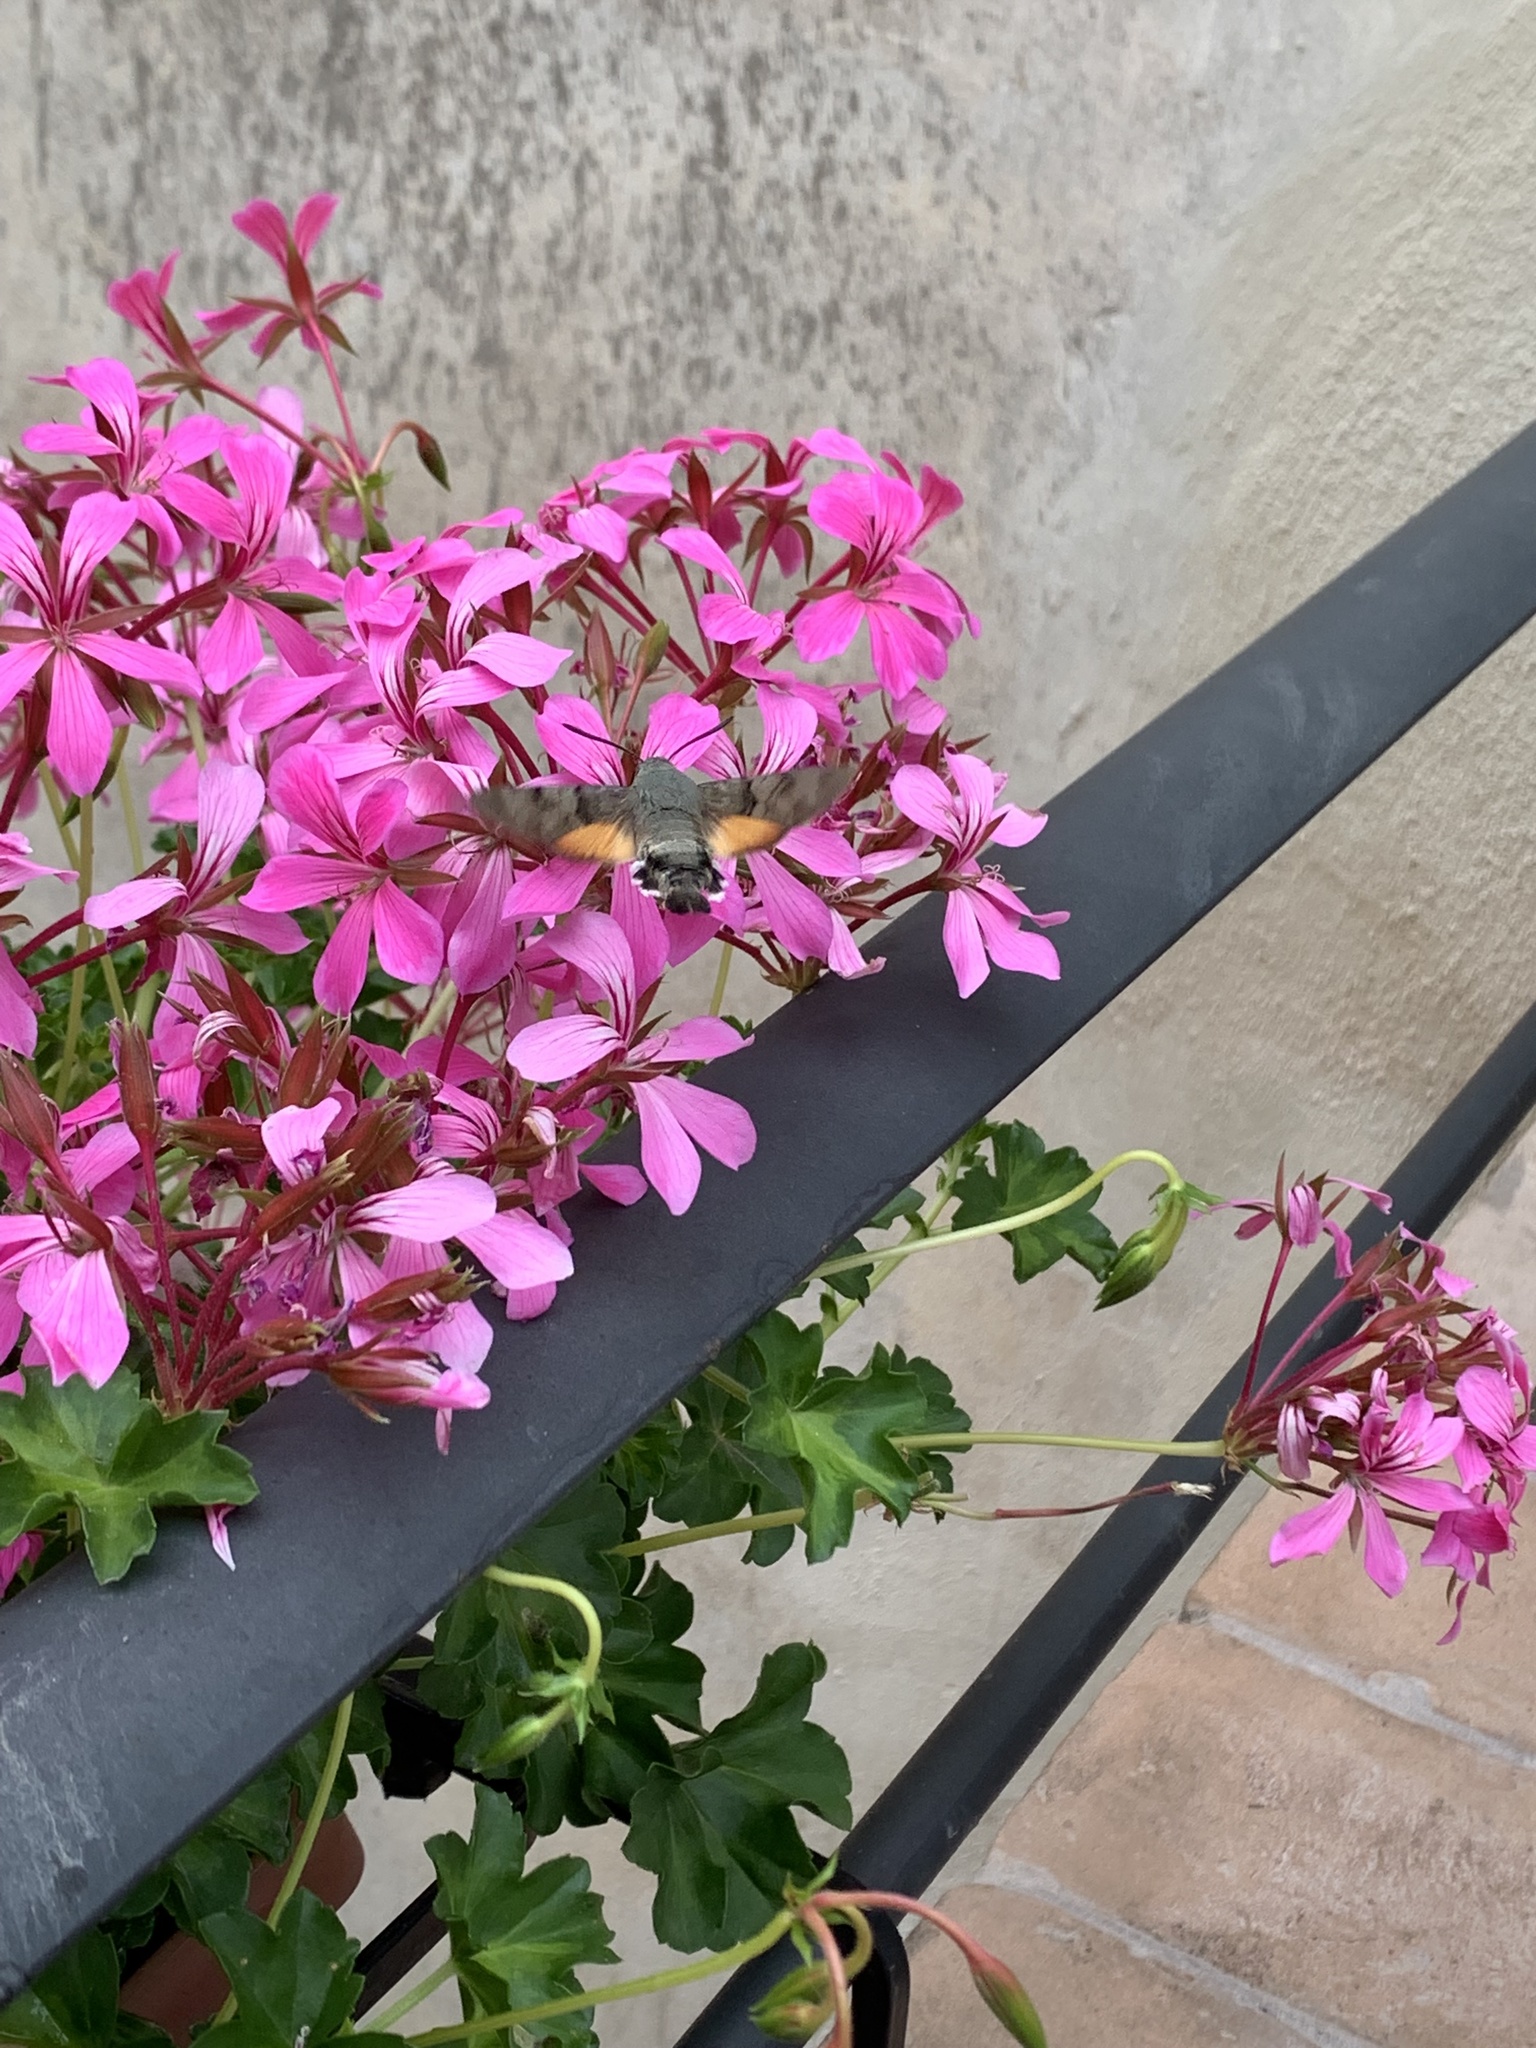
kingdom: Animalia
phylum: Arthropoda
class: Insecta
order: Lepidoptera
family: Sphingidae
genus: Macroglossum
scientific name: Macroglossum stellatarum
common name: Humming-bird hawk-moth
